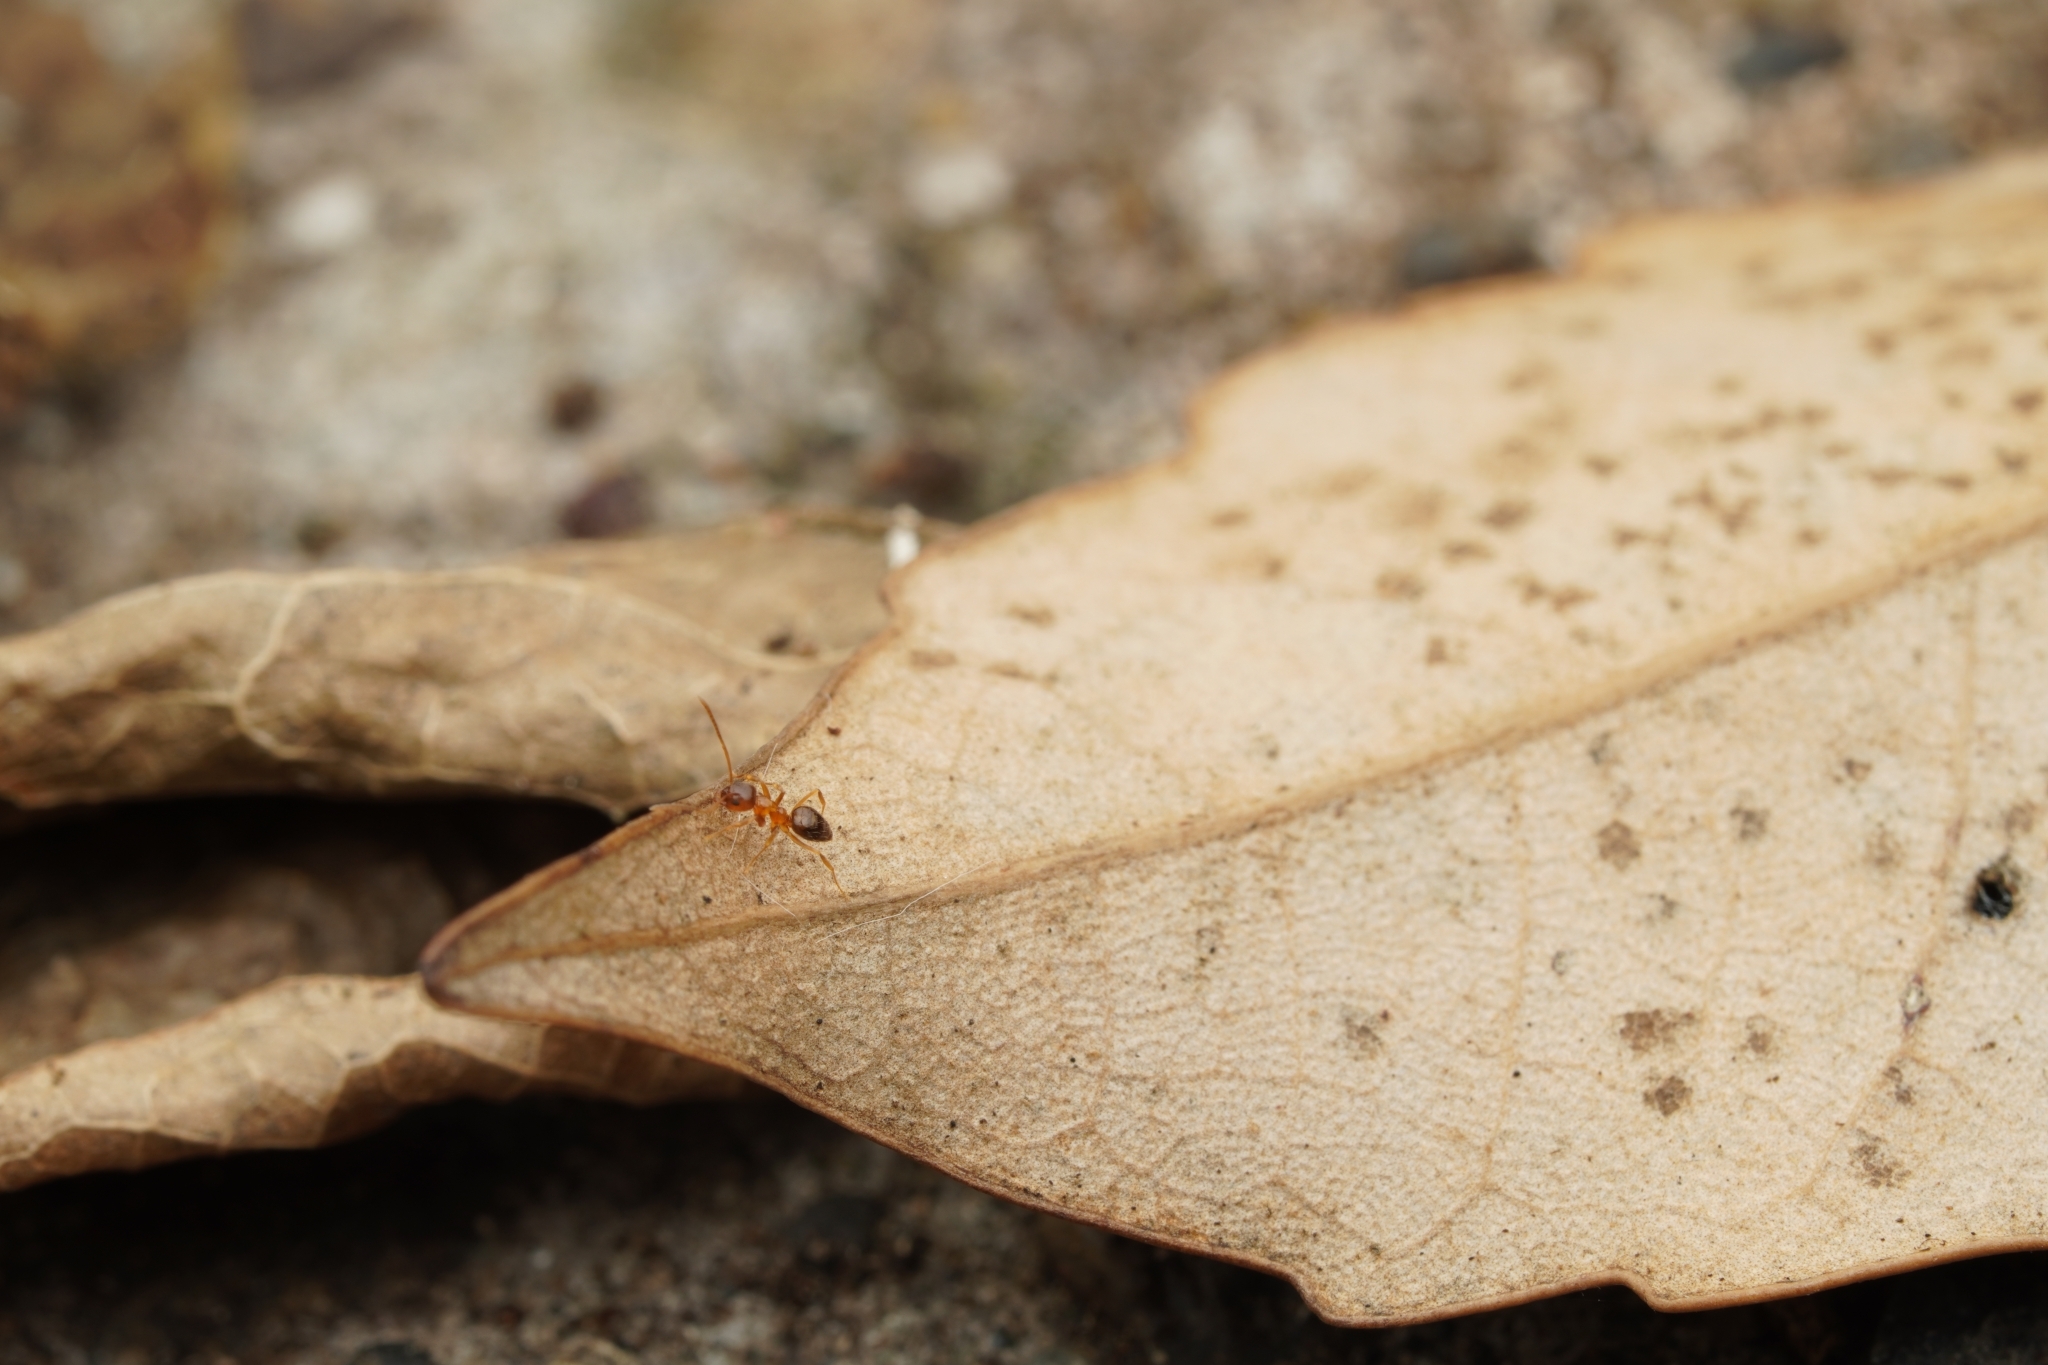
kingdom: Animalia
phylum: Arthropoda
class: Insecta
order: Hymenoptera
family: Formicidae
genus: Paratrechina
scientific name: Paratrechina flavipes
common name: Eastern asian formicine ant
